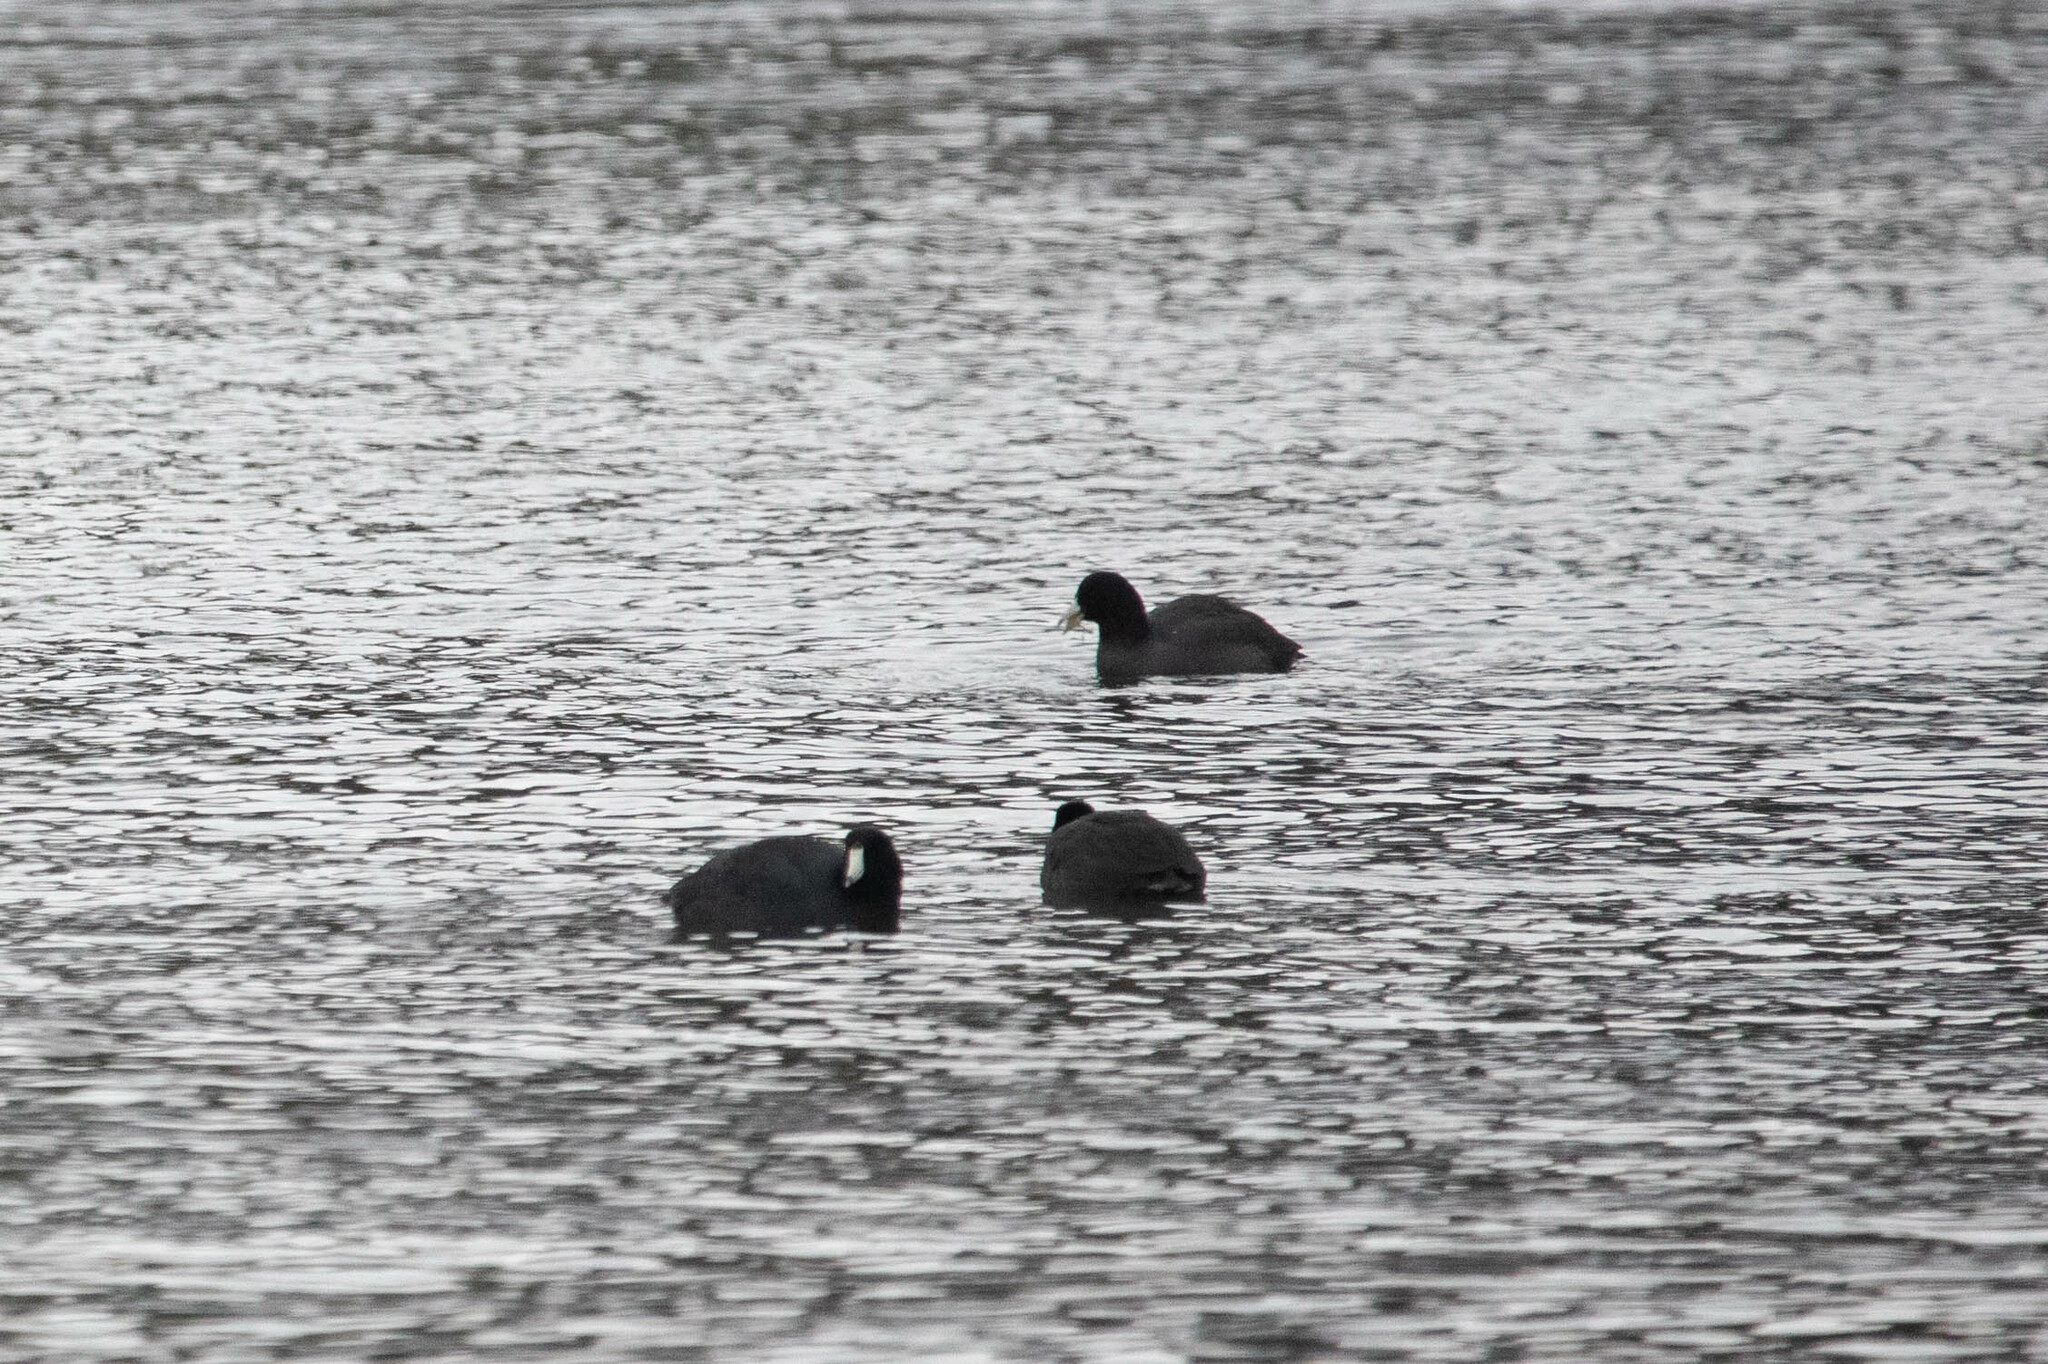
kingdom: Animalia
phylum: Chordata
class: Aves
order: Gruiformes
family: Rallidae
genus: Fulica
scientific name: Fulica americana
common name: American coot
